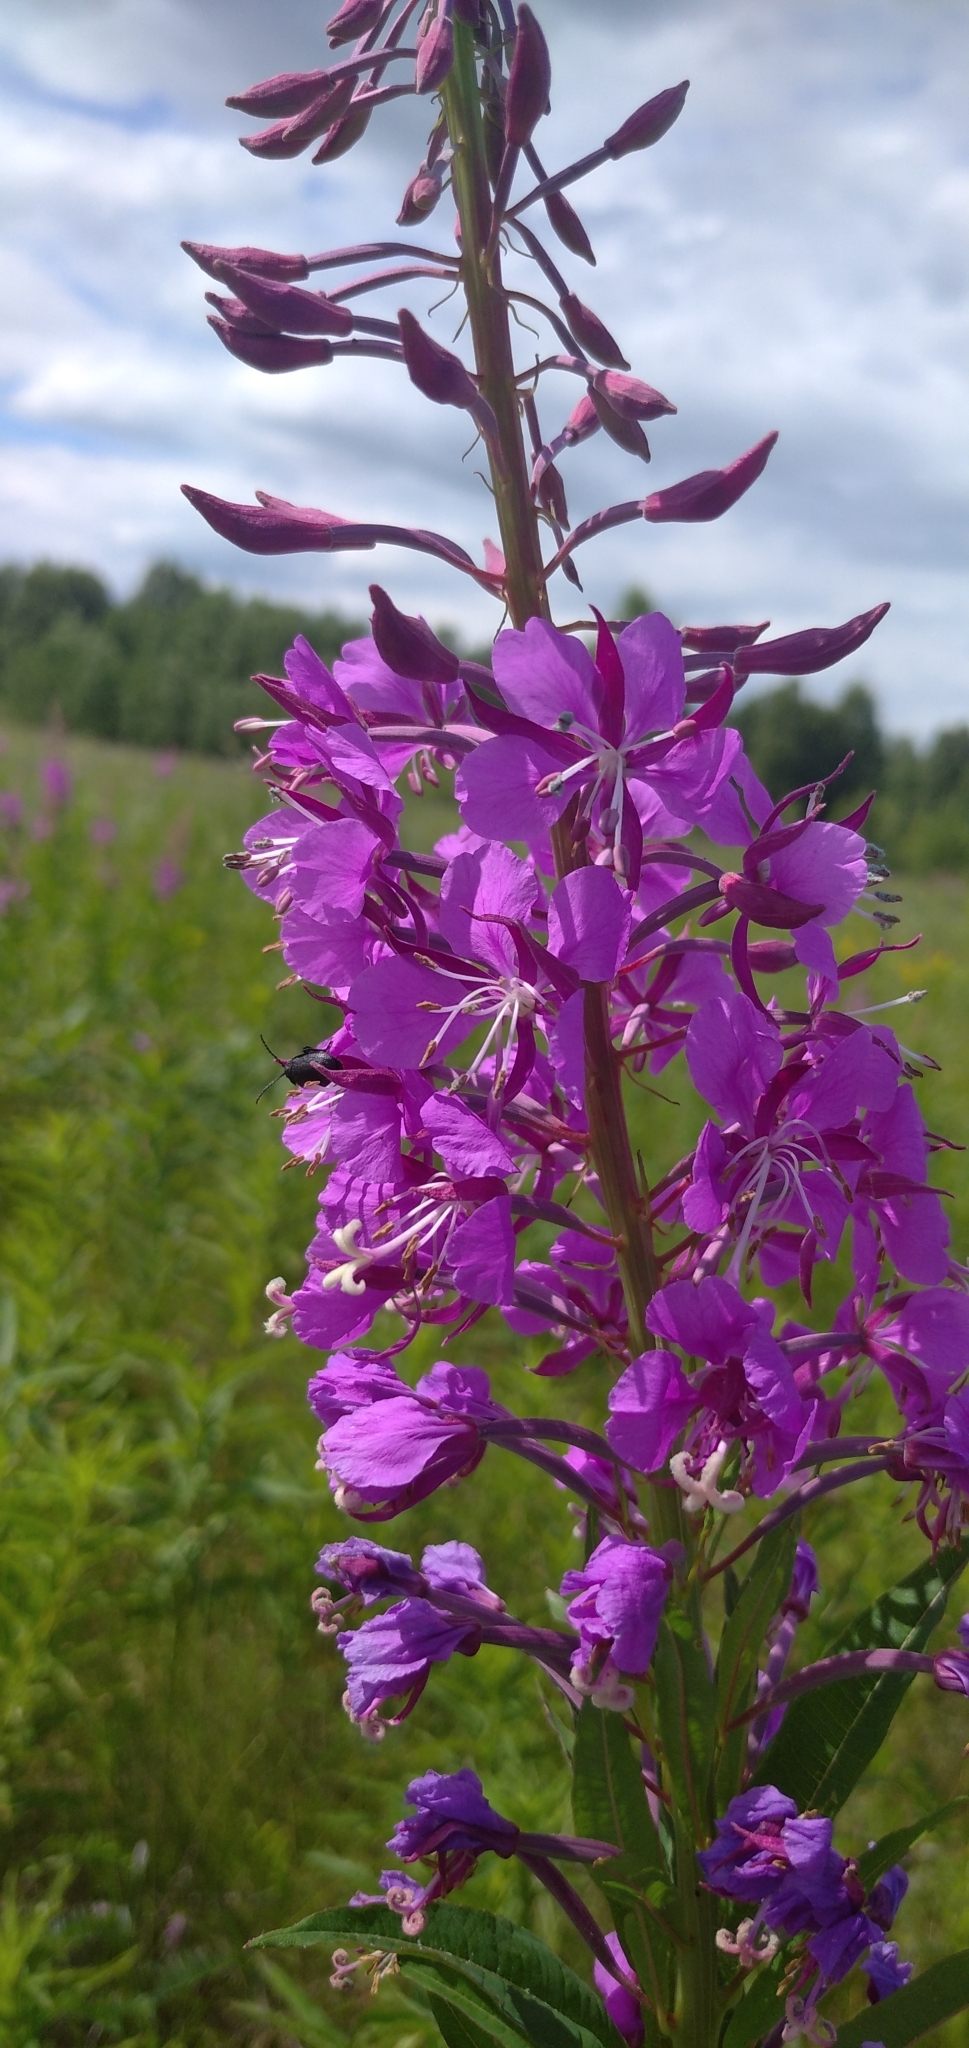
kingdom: Plantae
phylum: Tracheophyta
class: Magnoliopsida
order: Myrtales
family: Onagraceae
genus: Chamaenerion
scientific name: Chamaenerion angustifolium
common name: Fireweed
